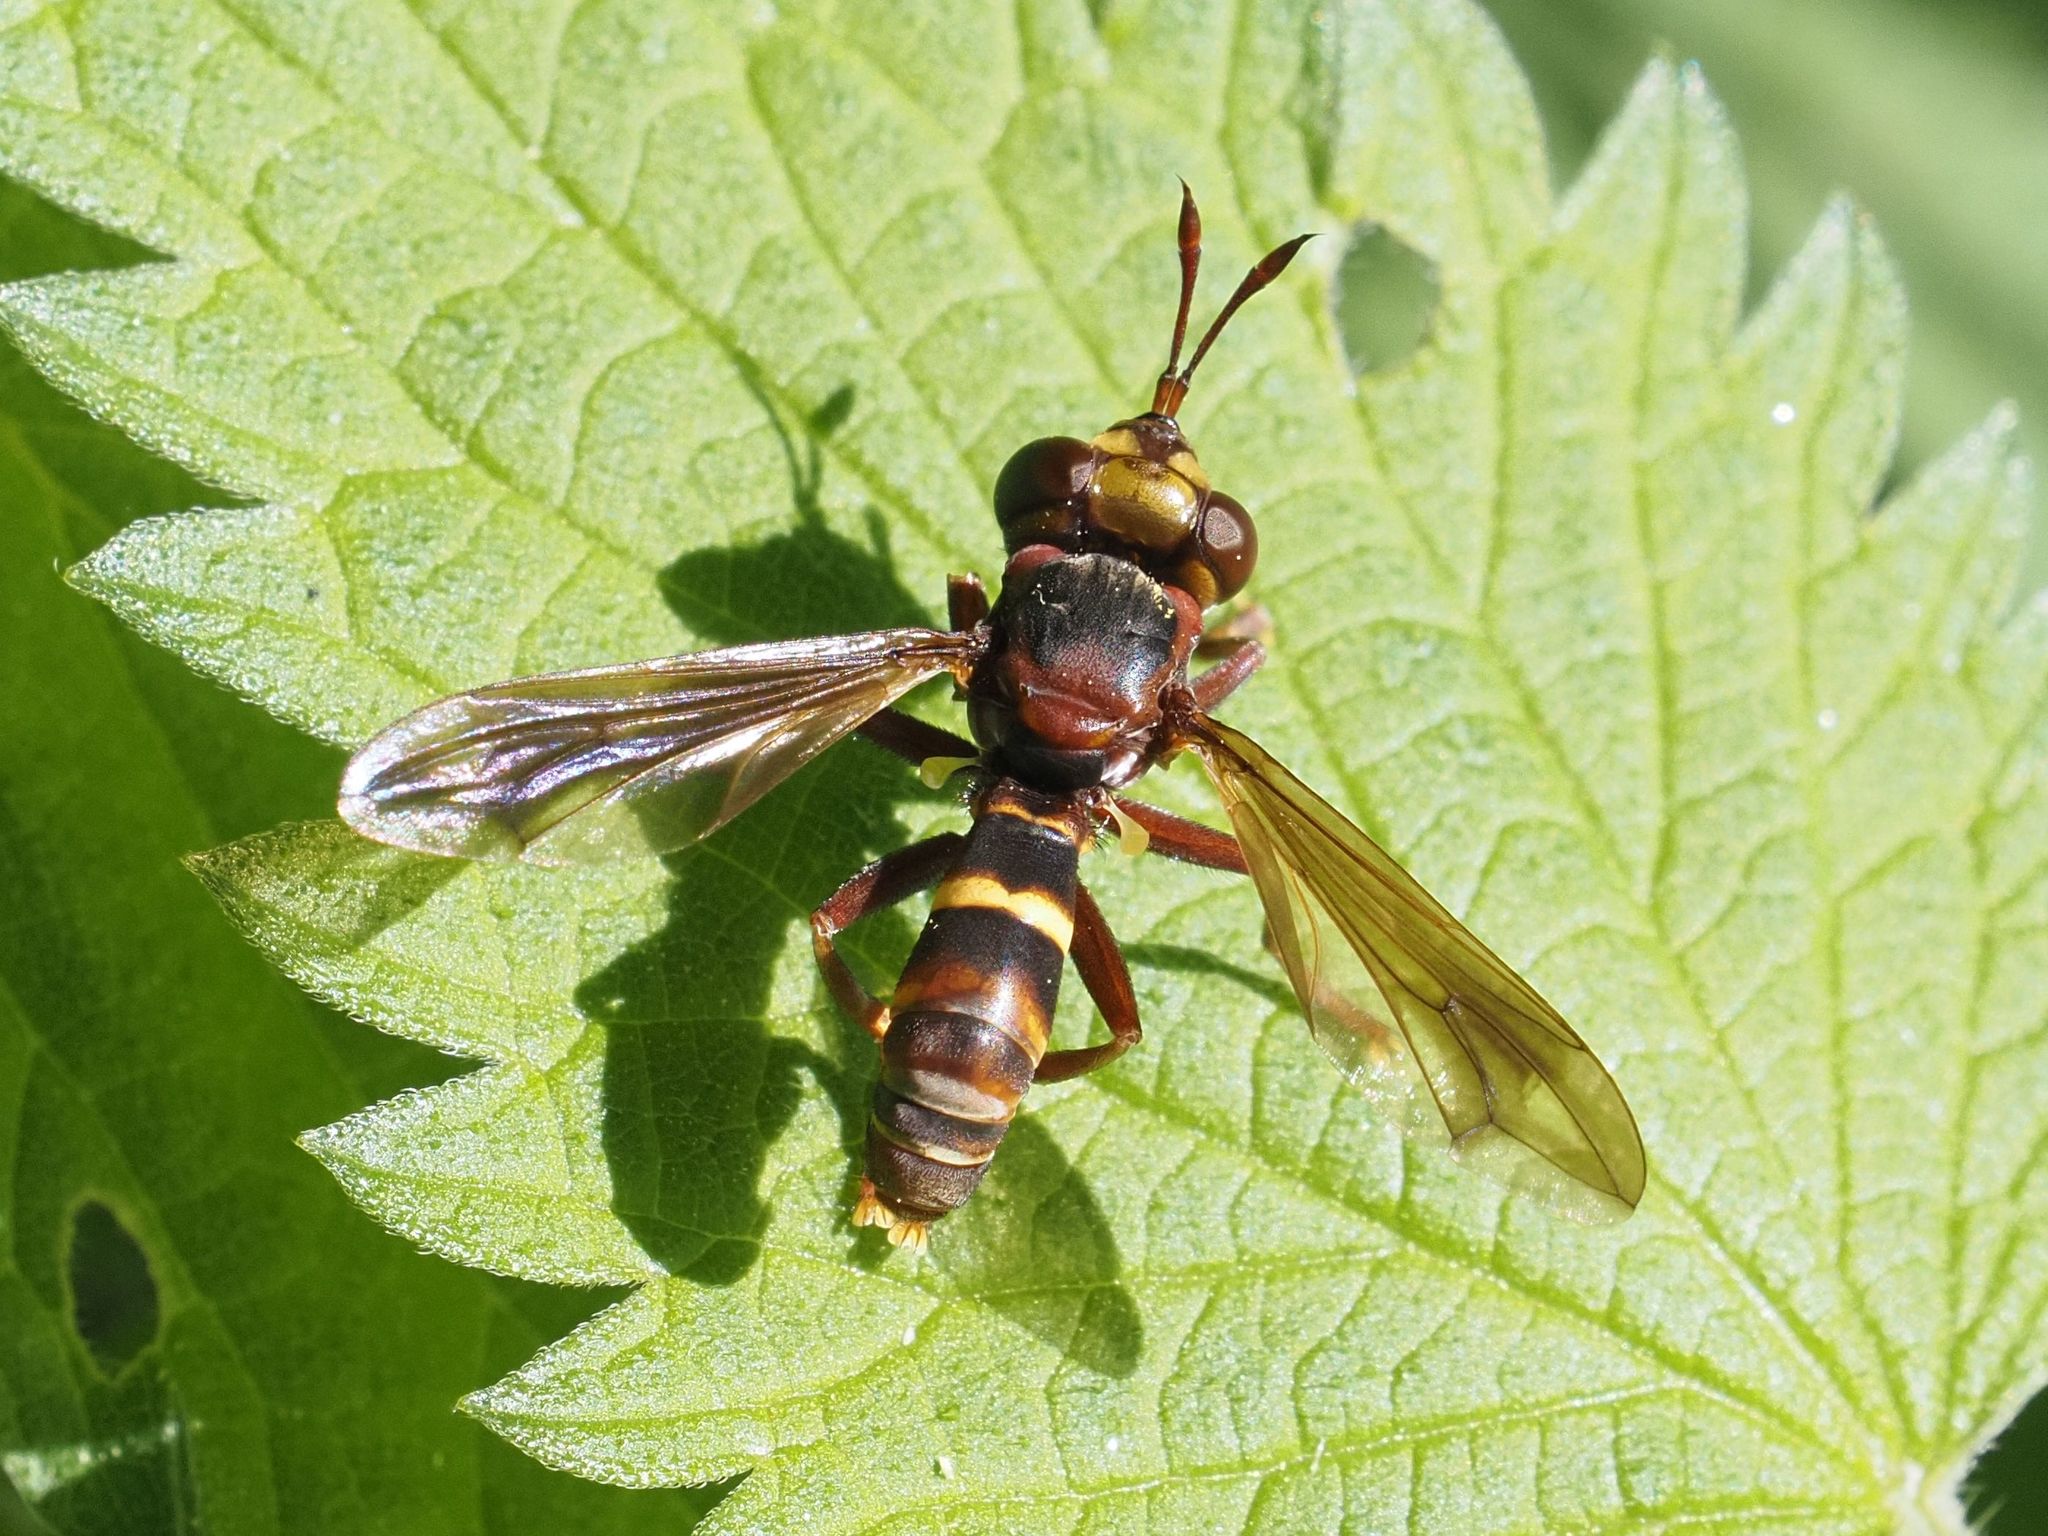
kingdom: Animalia
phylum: Arthropoda
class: Insecta
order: Diptera
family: Conopidae
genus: Conops
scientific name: Conops vesicularis
